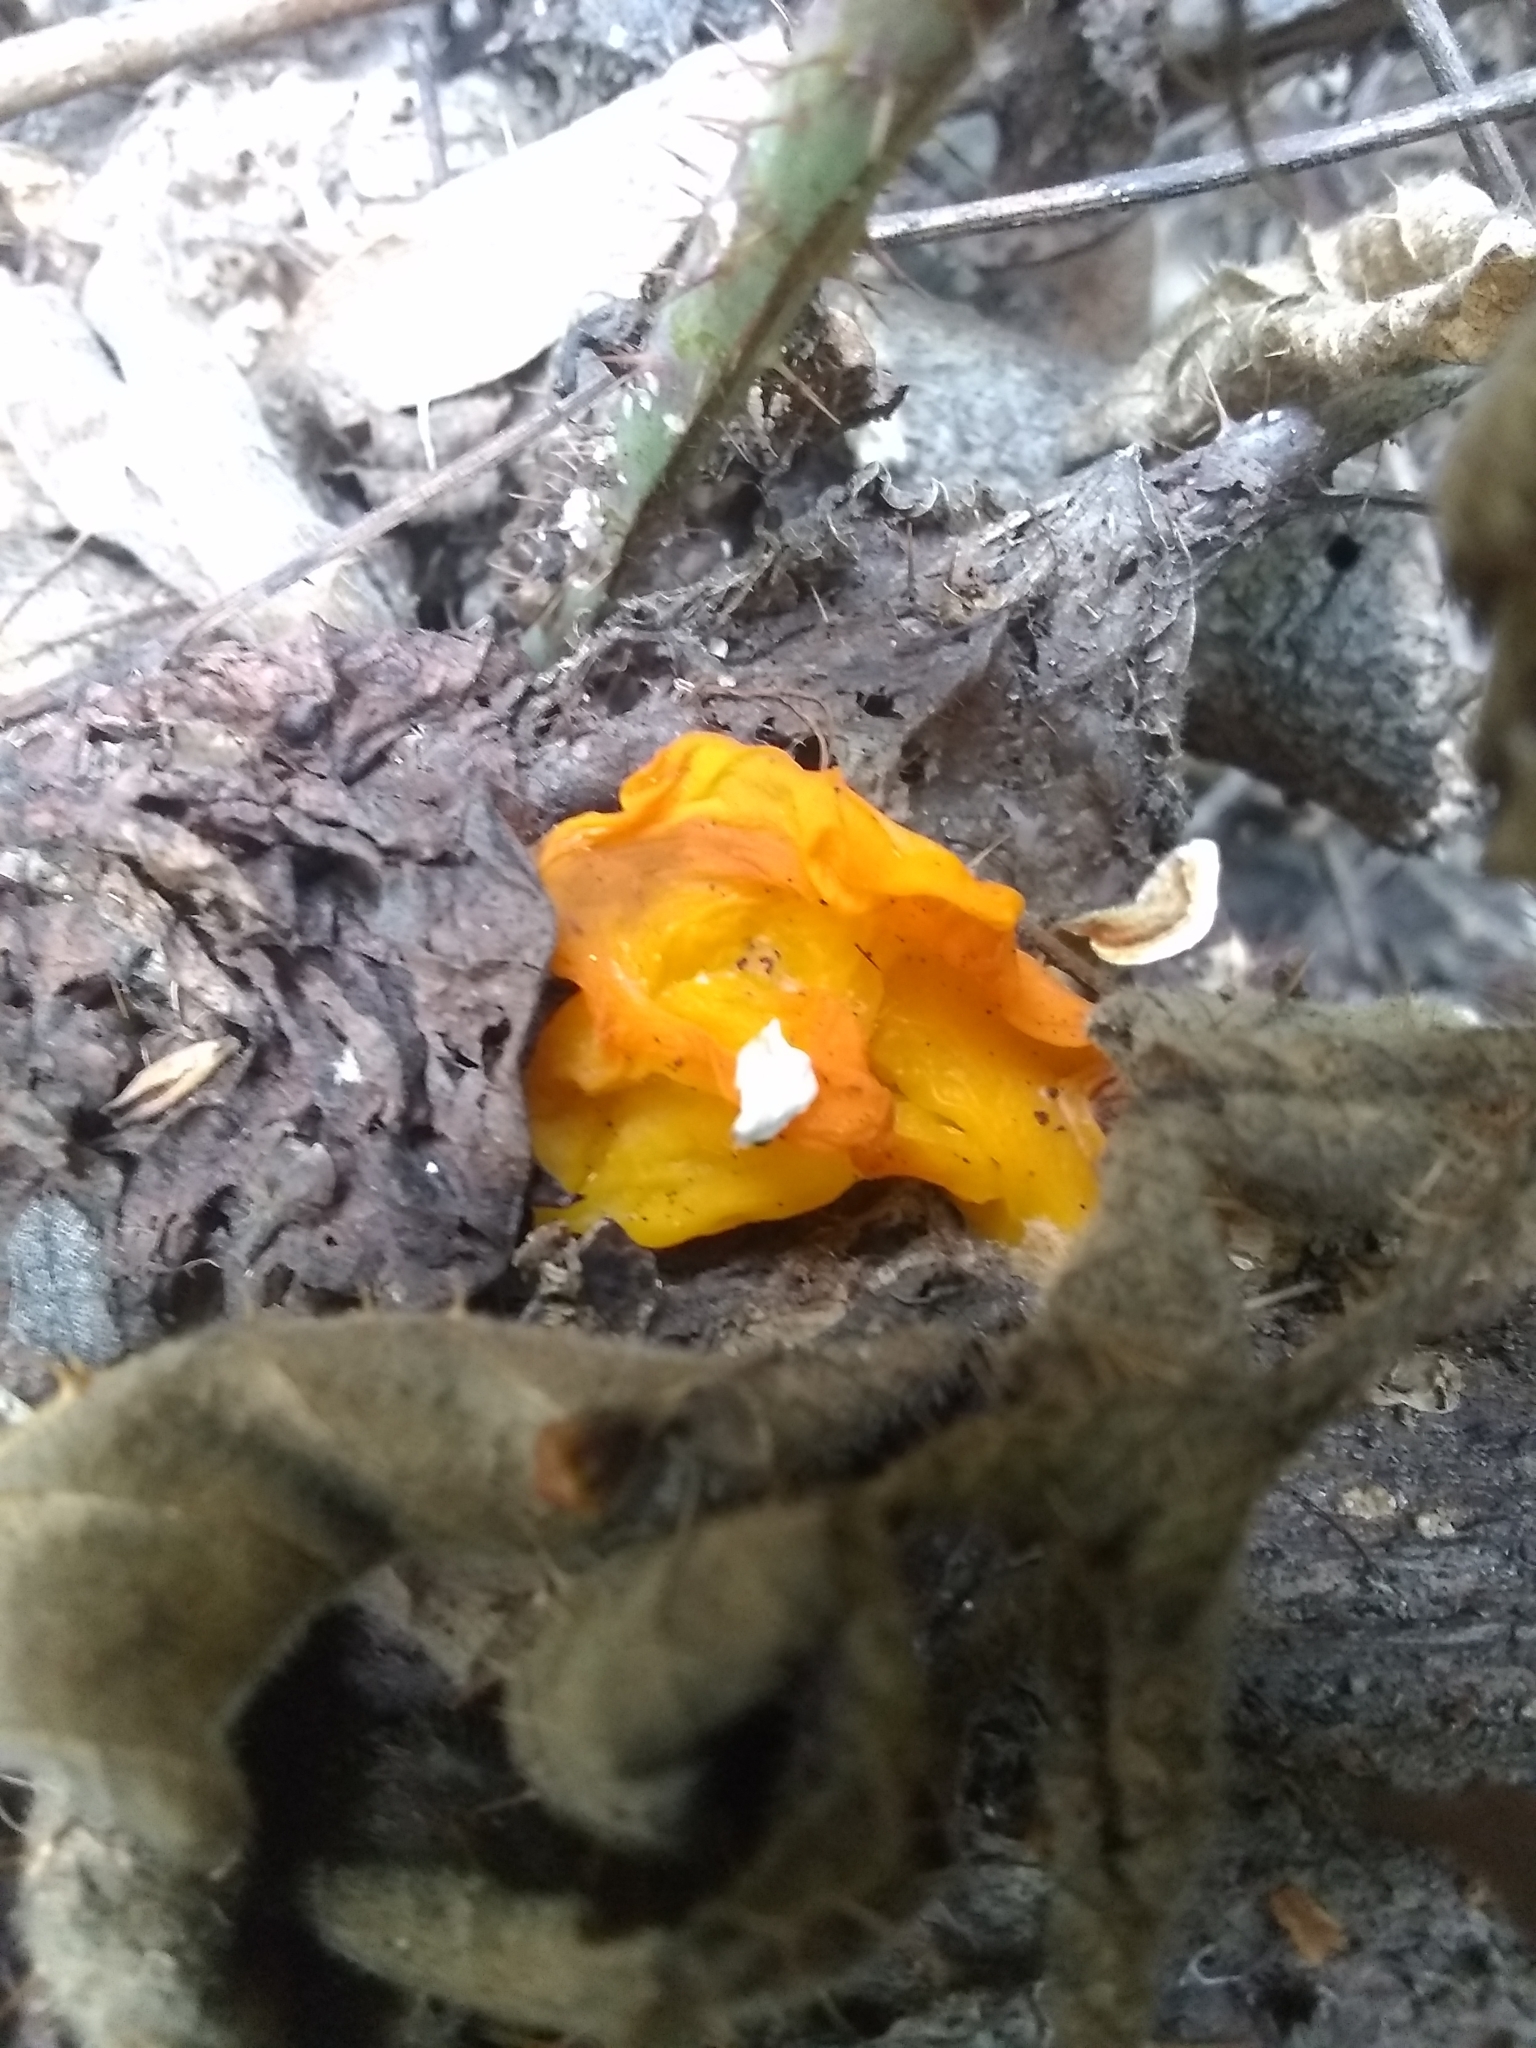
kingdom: Fungi
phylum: Basidiomycota
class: Tremellomycetes
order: Tremellales
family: Naemateliaceae
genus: Naematelia
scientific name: Naematelia aurantia
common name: Golden ear
